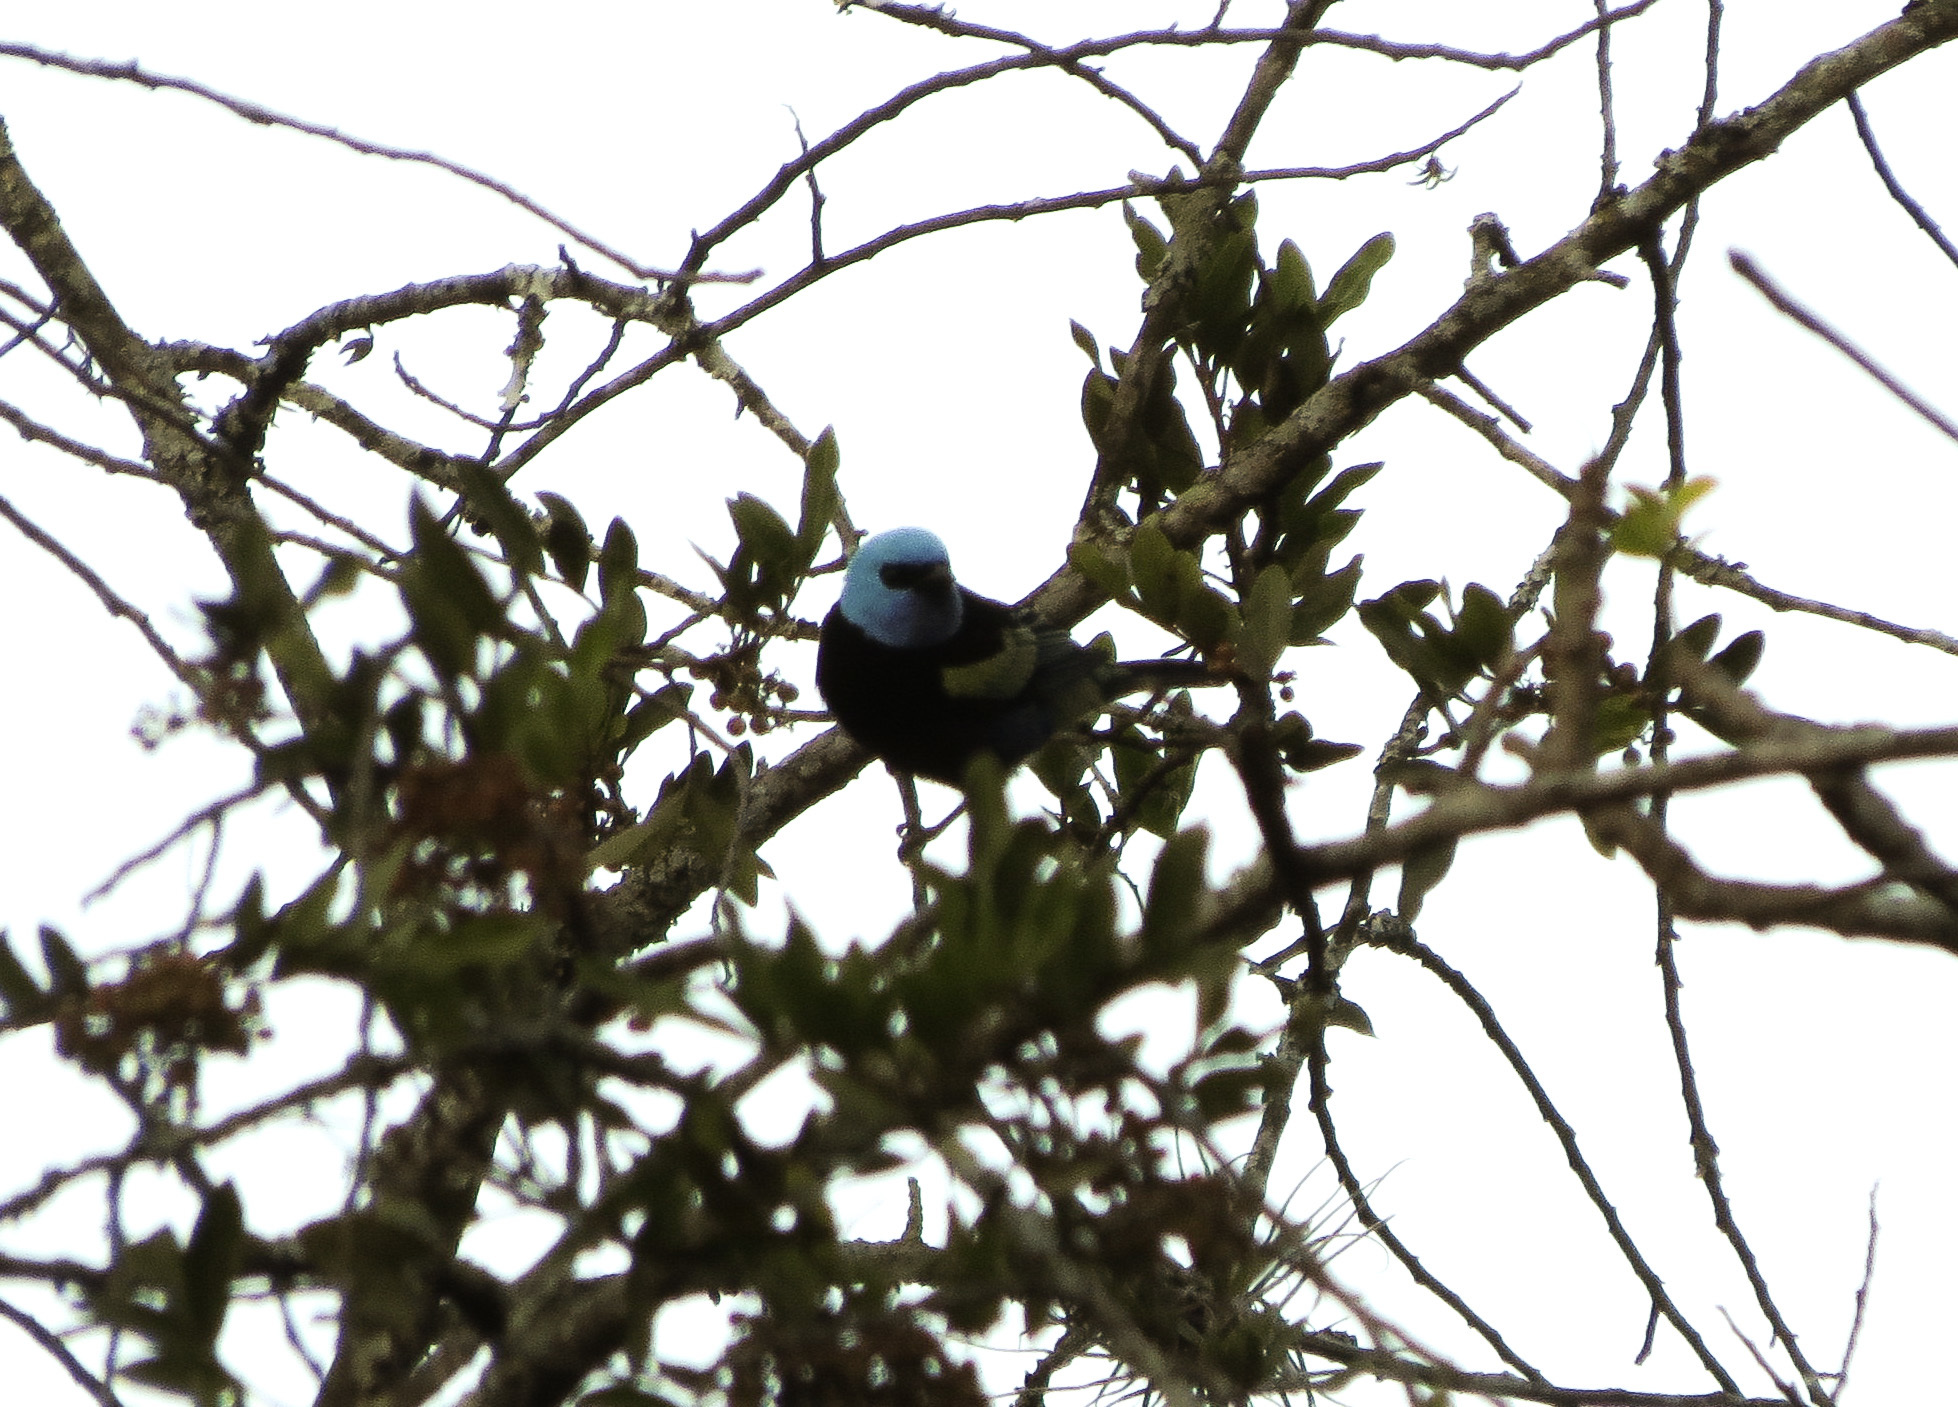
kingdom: Animalia
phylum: Chordata
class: Aves
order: Passeriformes
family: Thraupidae
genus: Stilpnia
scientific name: Stilpnia cyanicollis
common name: Blue-necked tanager
